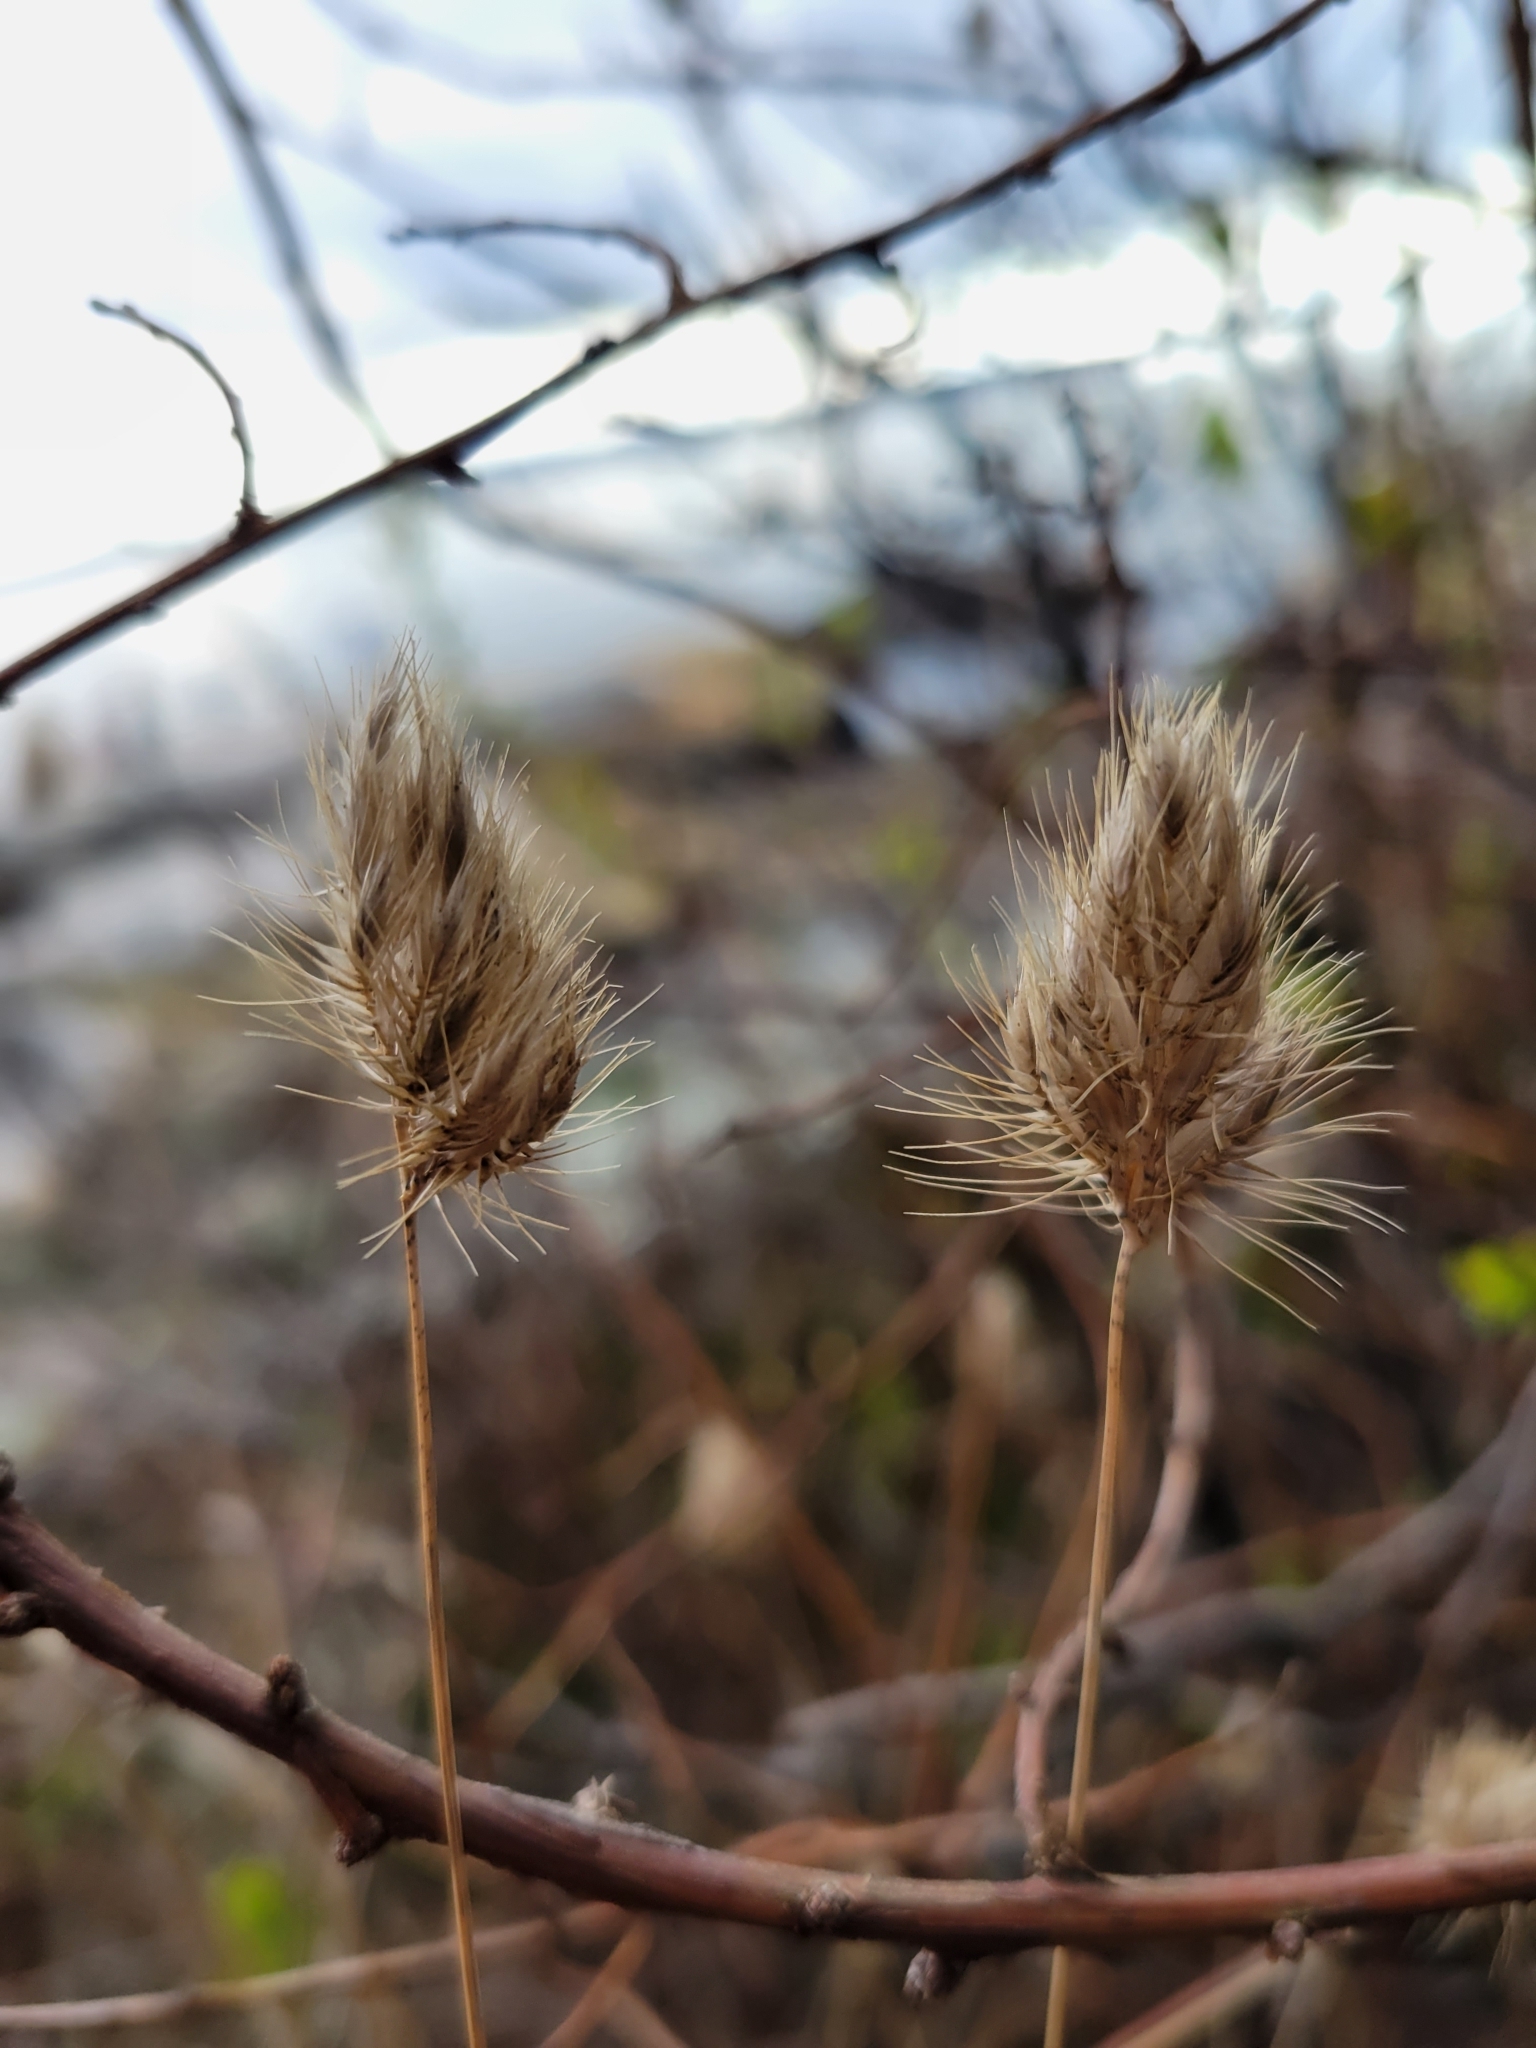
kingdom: Plantae
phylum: Tracheophyta
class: Liliopsida
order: Poales
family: Poaceae
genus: Cynosurus
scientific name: Cynosurus echinatus
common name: Rough dog's-tail
